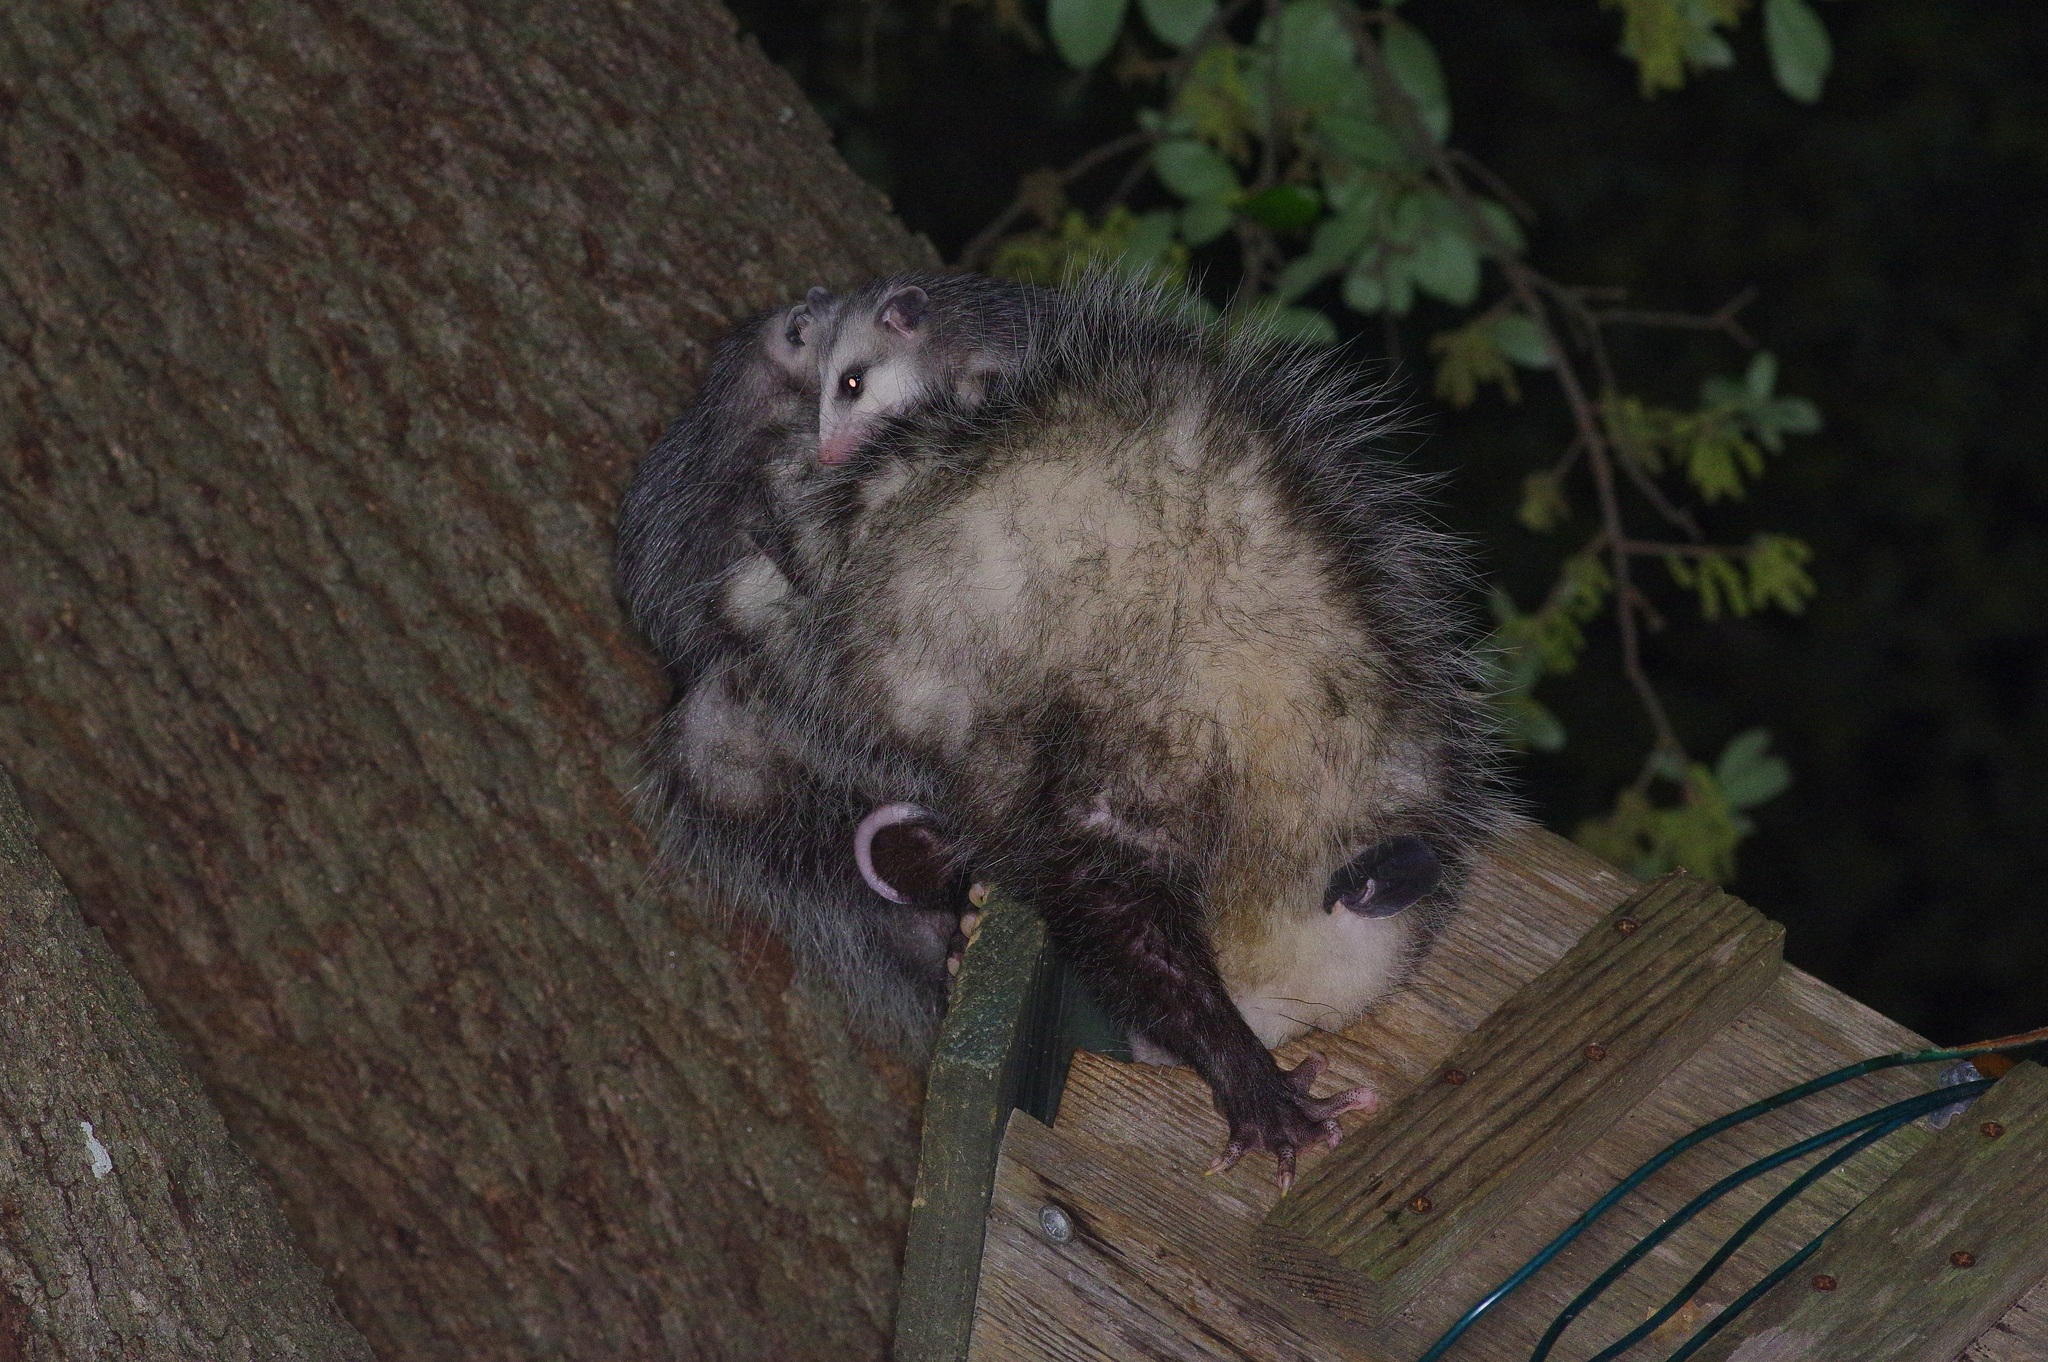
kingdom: Animalia
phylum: Chordata
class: Mammalia
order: Didelphimorphia
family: Didelphidae
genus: Didelphis
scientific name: Didelphis virginiana
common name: Virginia opossum
